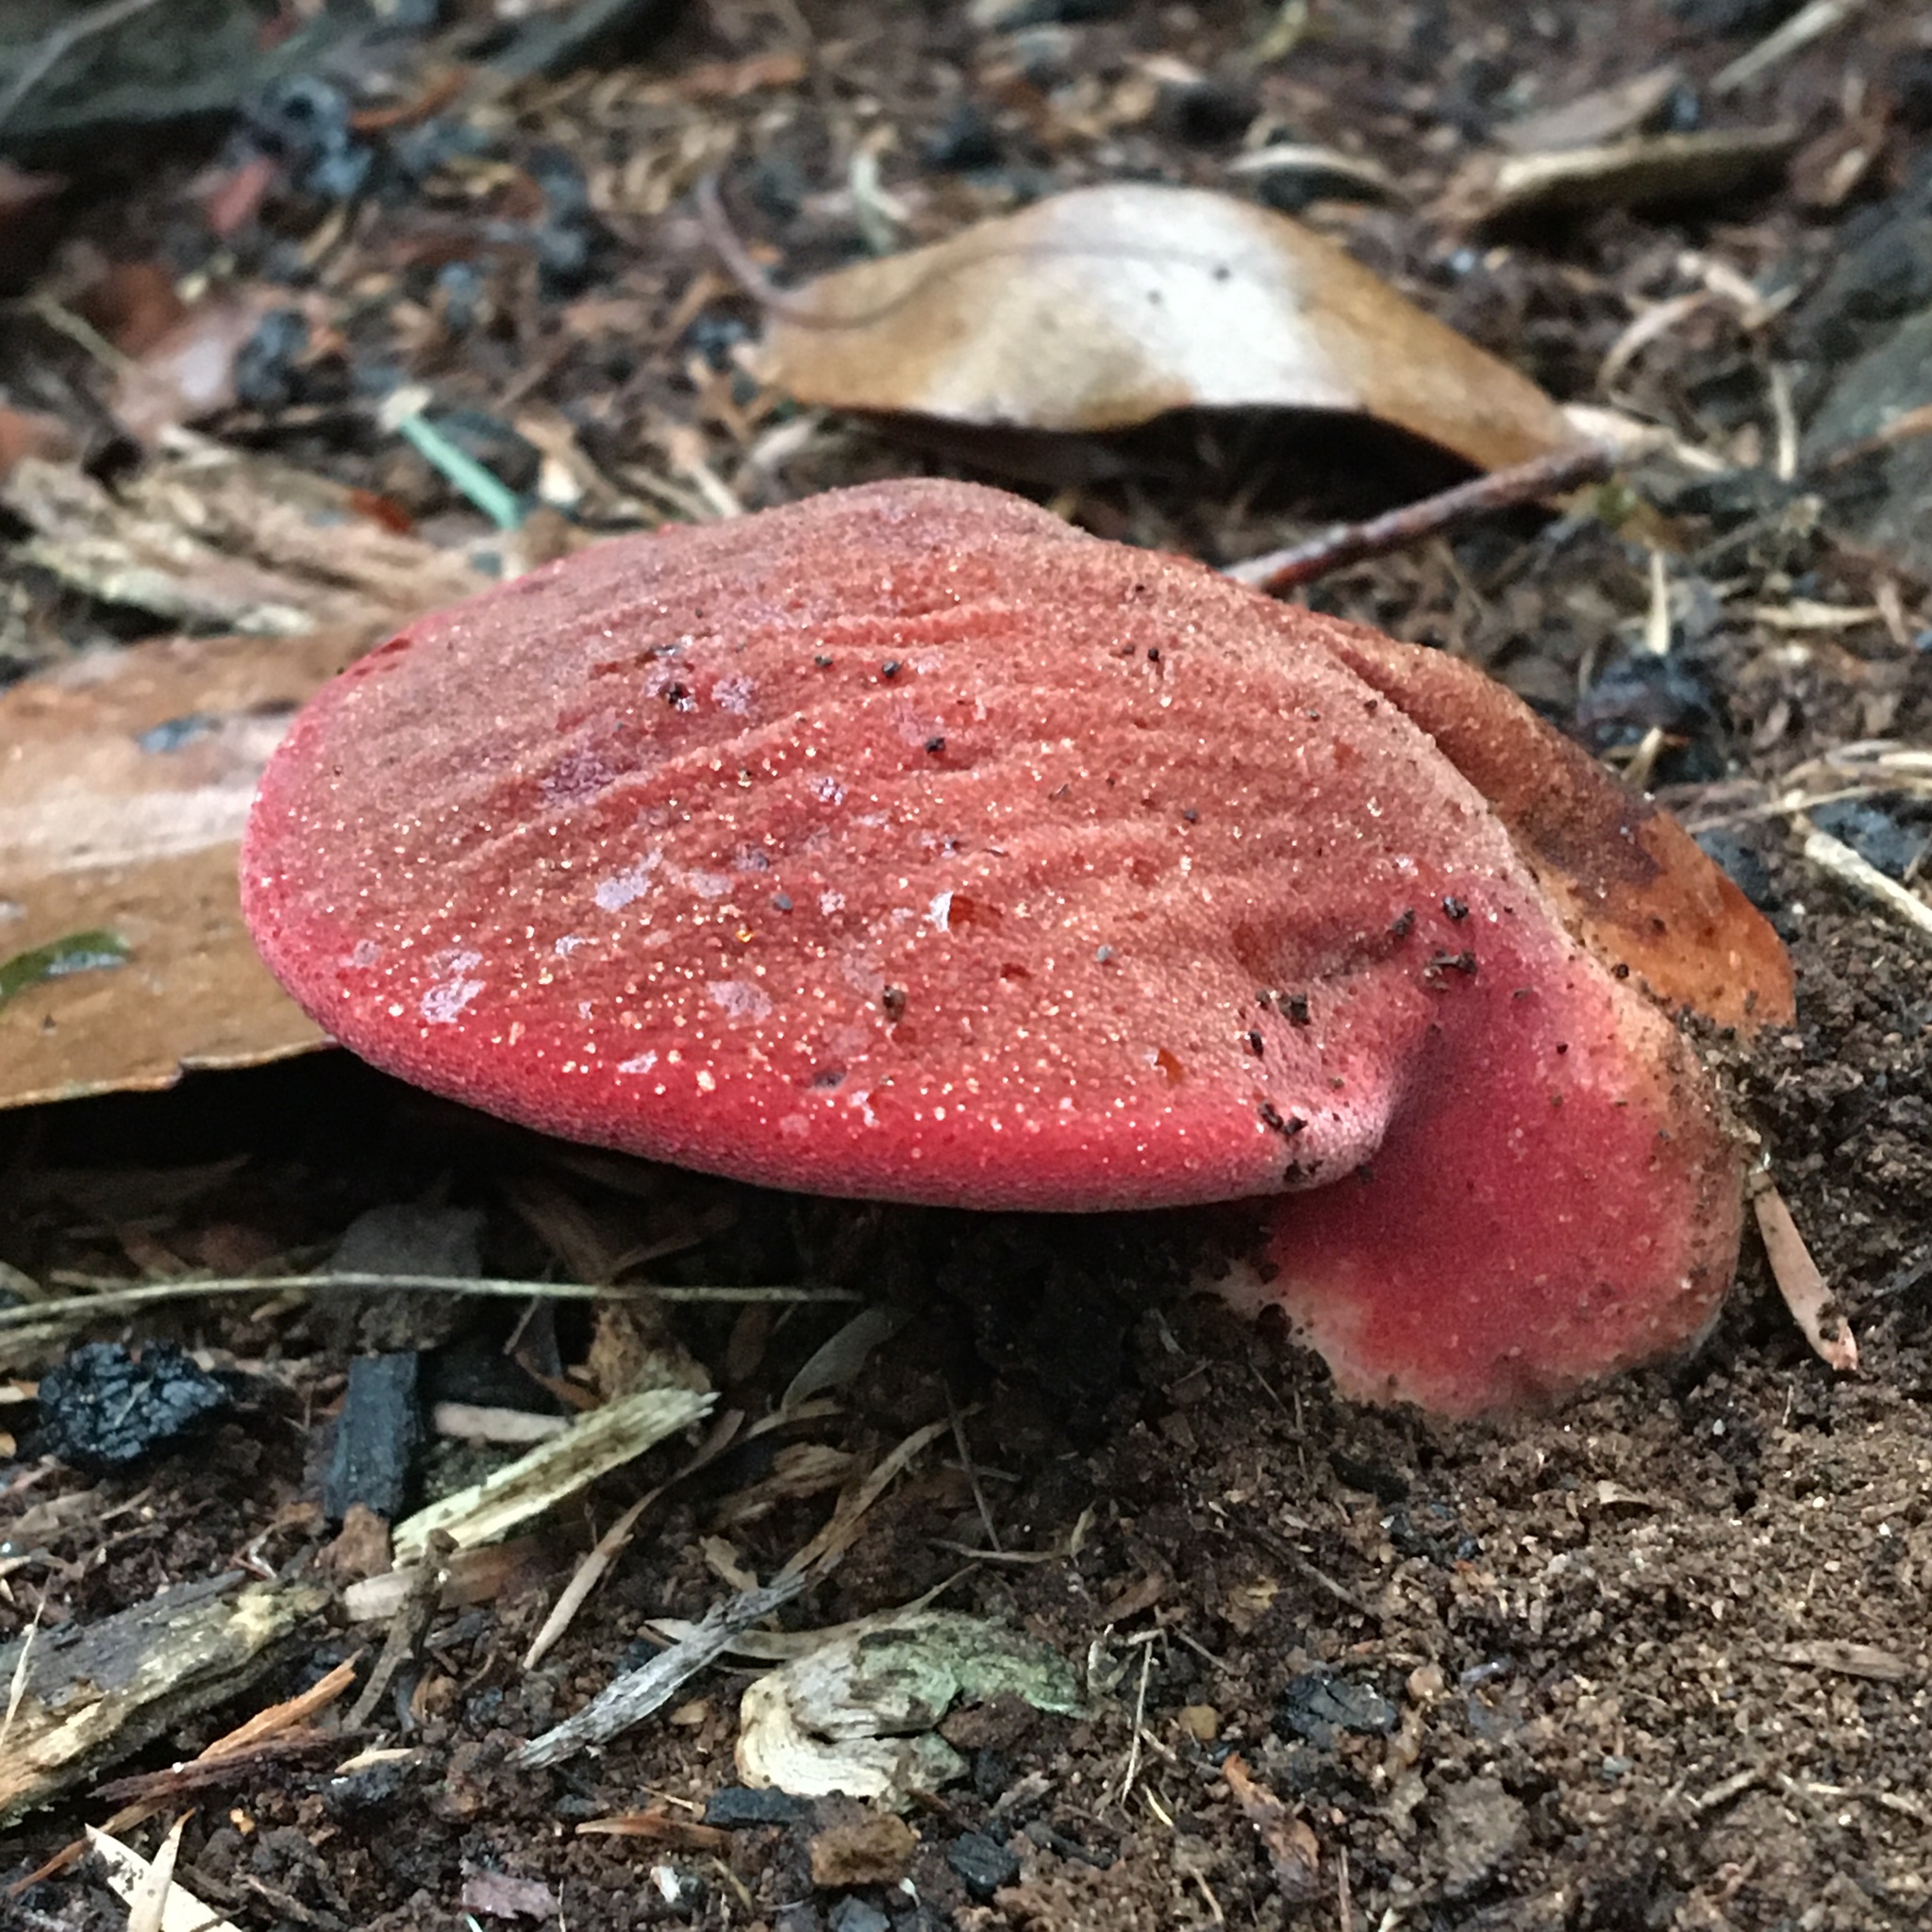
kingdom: Fungi
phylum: Basidiomycota
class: Agaricomycetes
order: Agaricales
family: Fistulinaceae
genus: Fistulina
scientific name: Fistulina spiculifera
